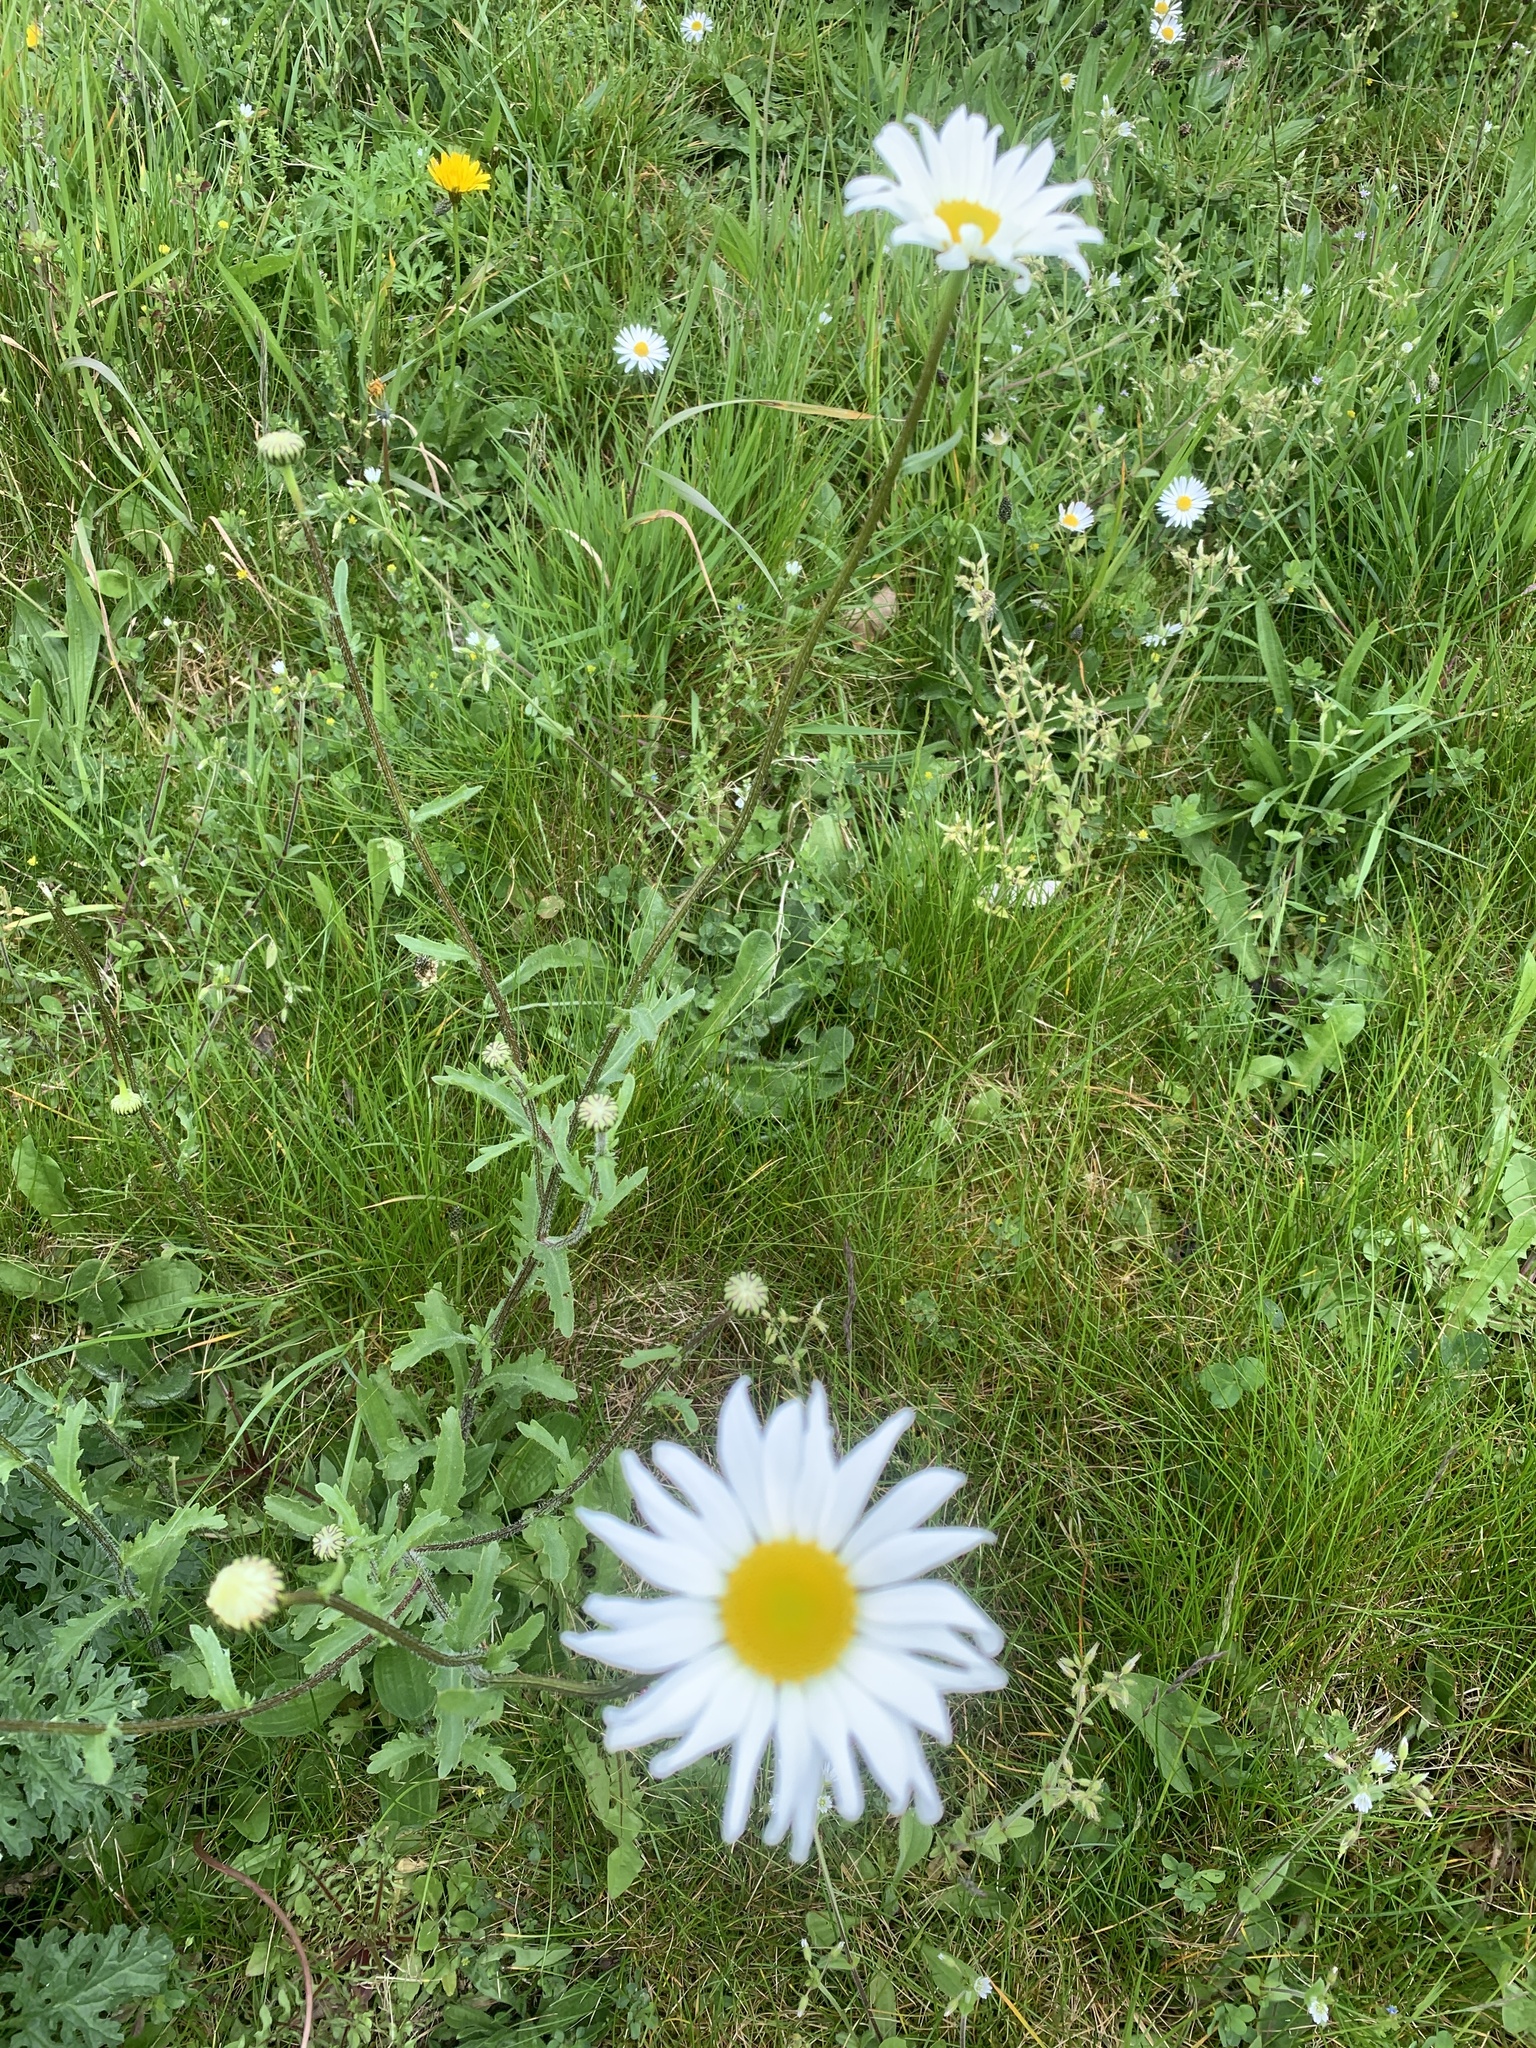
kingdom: Plantae
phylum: Tracheophyta
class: Magnoliopsida
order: Asterales
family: Asteraceae
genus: Leucanthemum
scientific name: Leucanthemum vulgare
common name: Oxeye daisy
